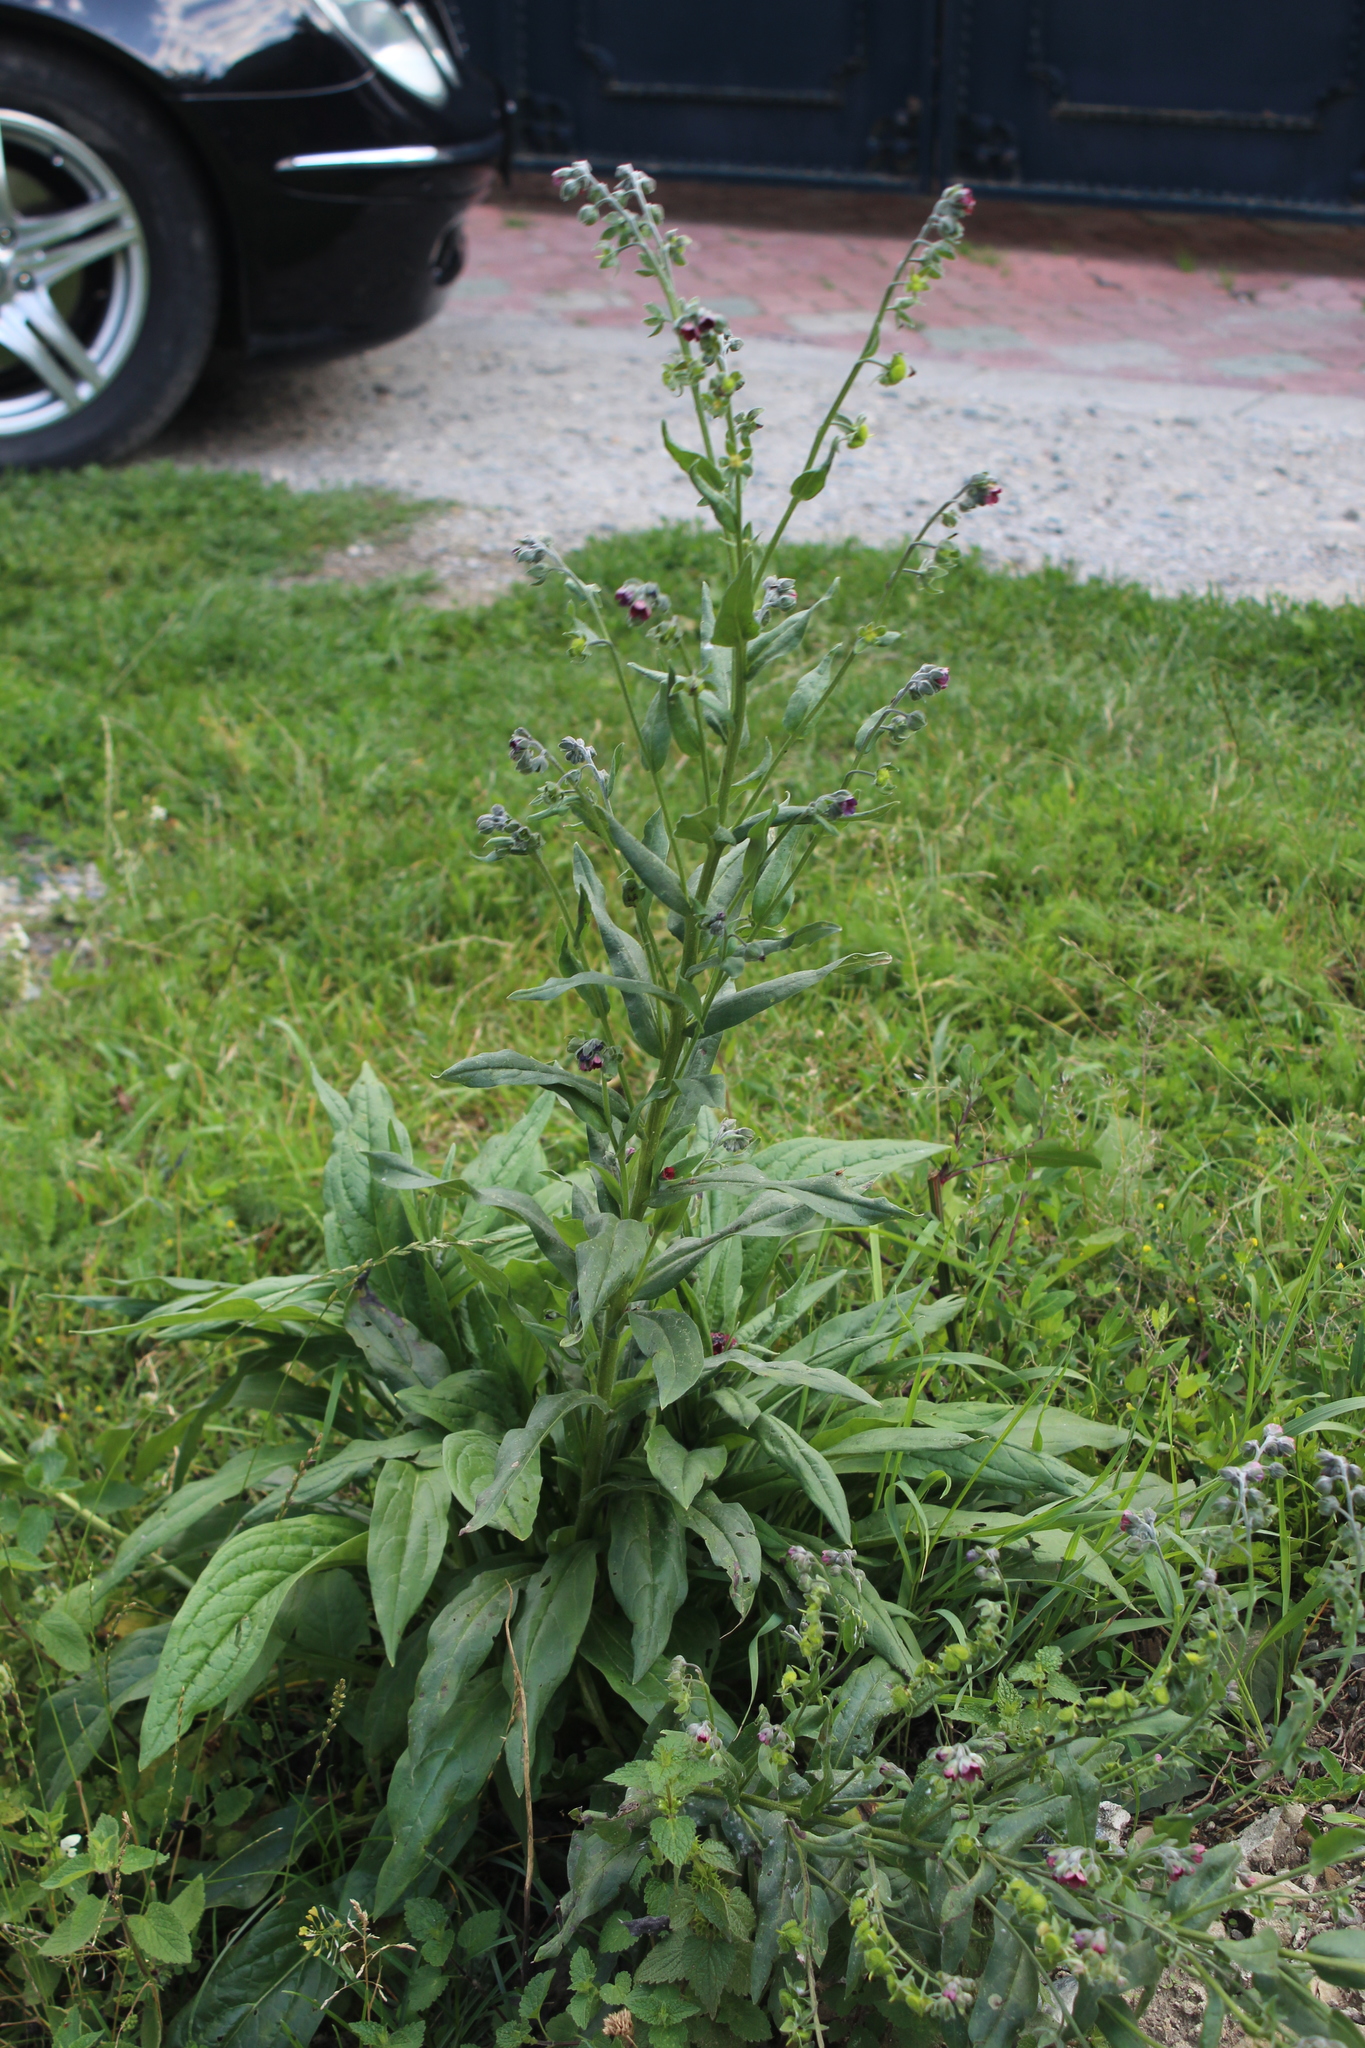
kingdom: Plantae
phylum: Tracheophyta
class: Magnoliopsida
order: Boraginales
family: Boraginaceae
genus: Cynoglossum
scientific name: Cynoglossum officinale
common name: Hound's-tongue
